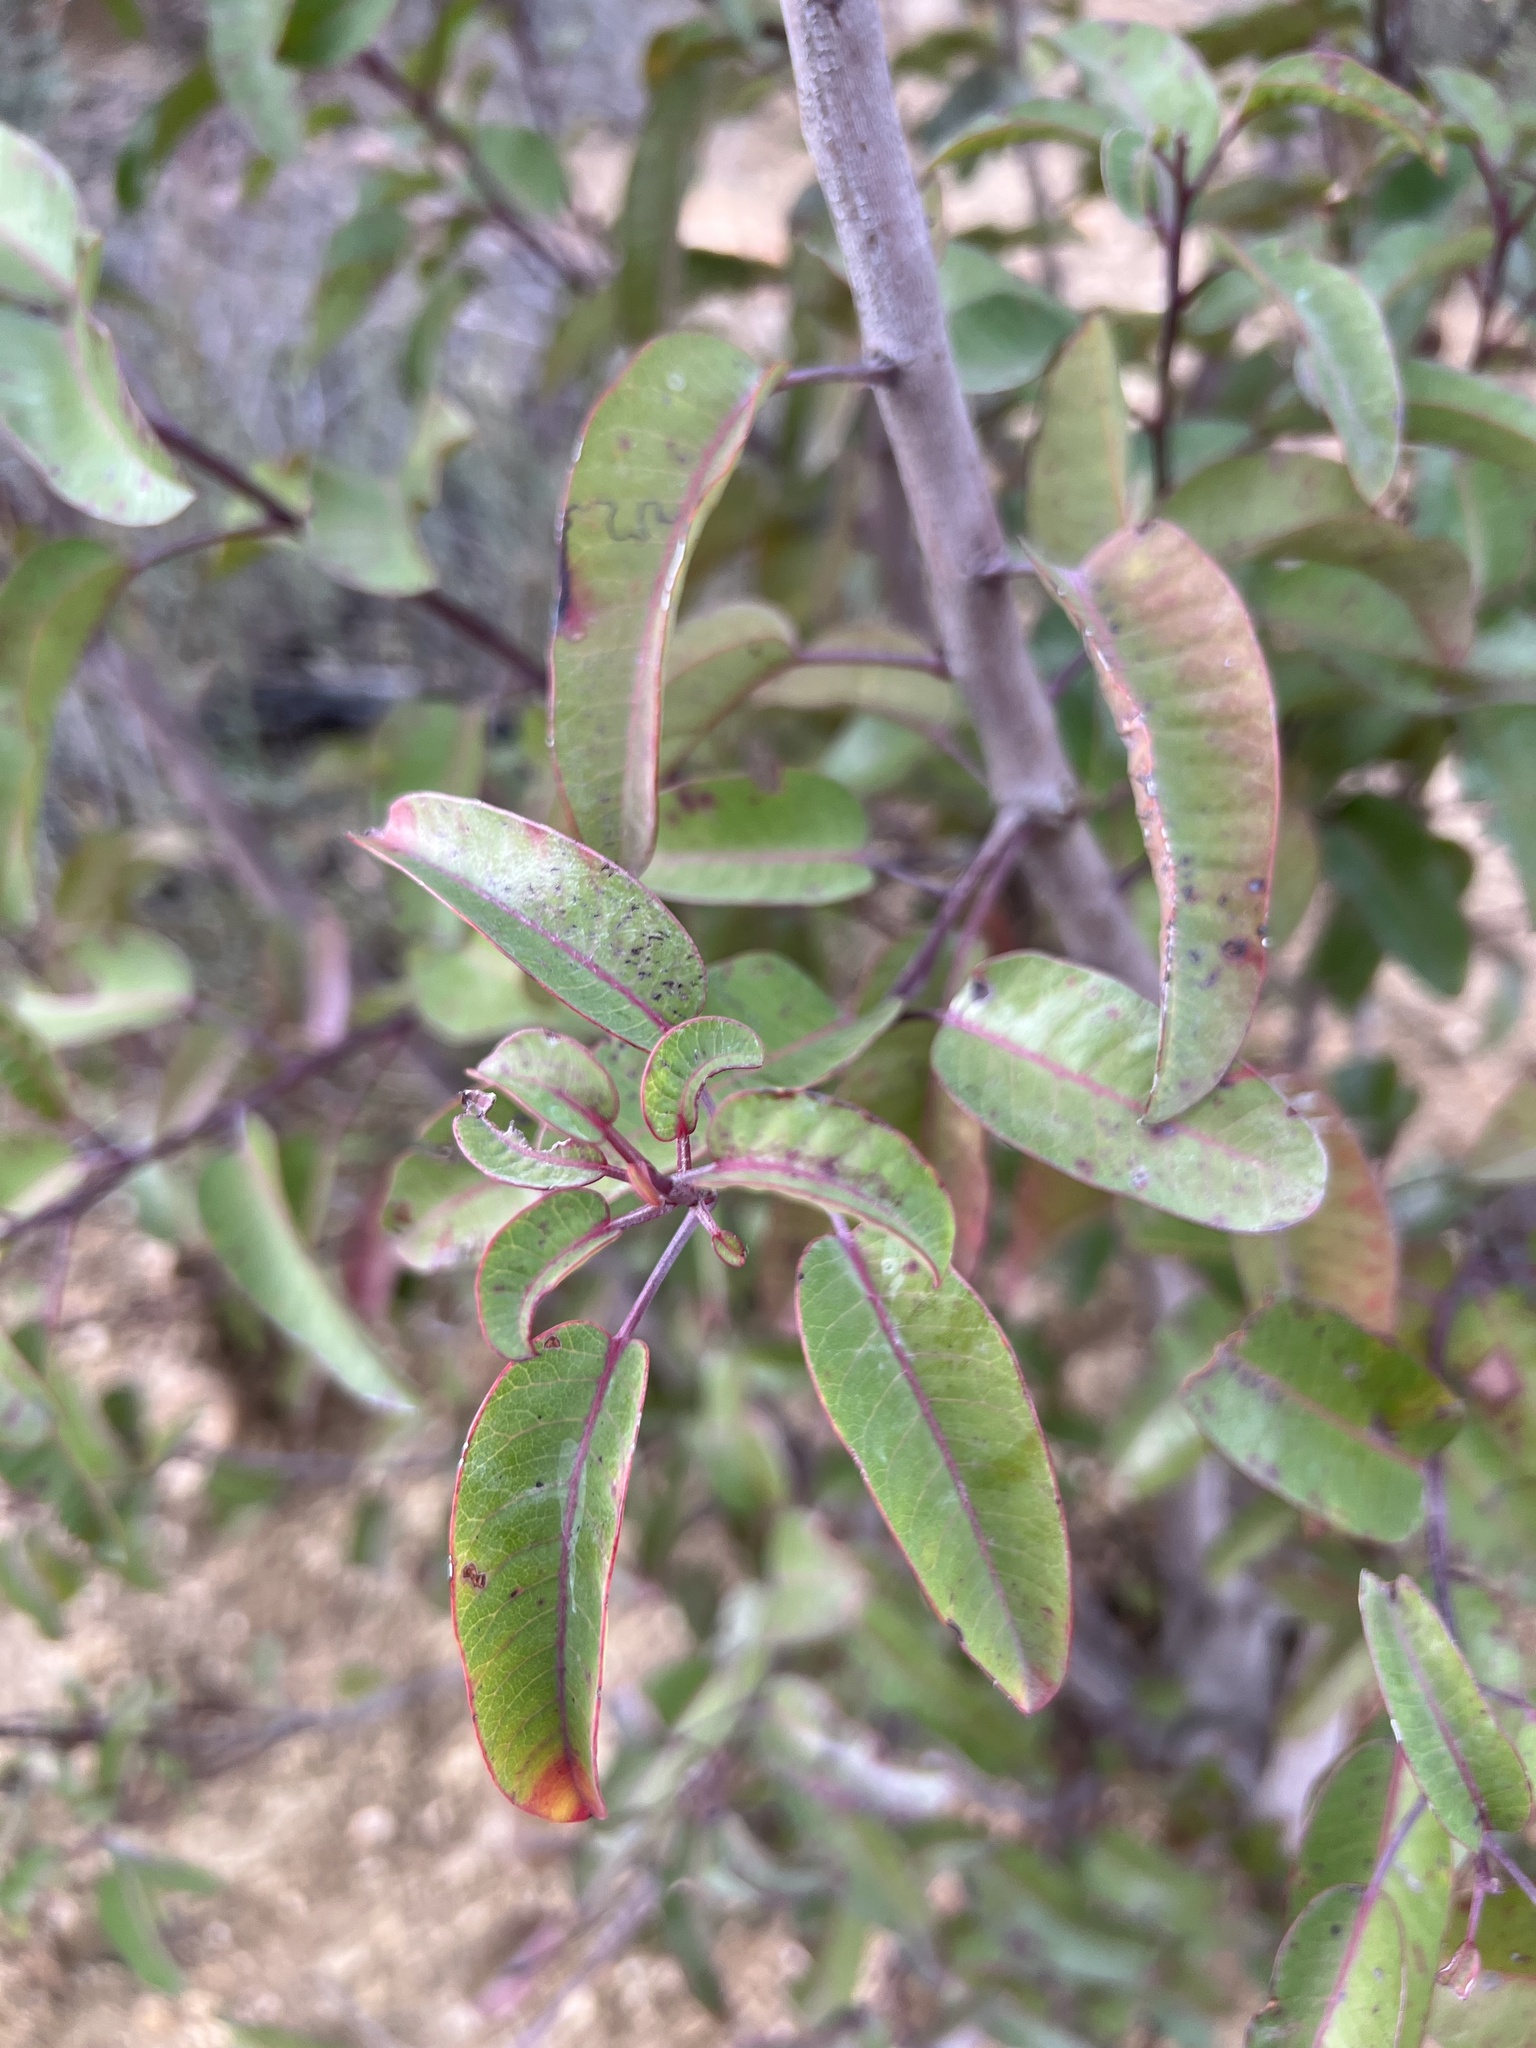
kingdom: Plantae
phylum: Tracheophyta
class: Magnoliopsida
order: Sapindales
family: Anacardiaceae
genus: Malosma
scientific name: Malosma laurina
